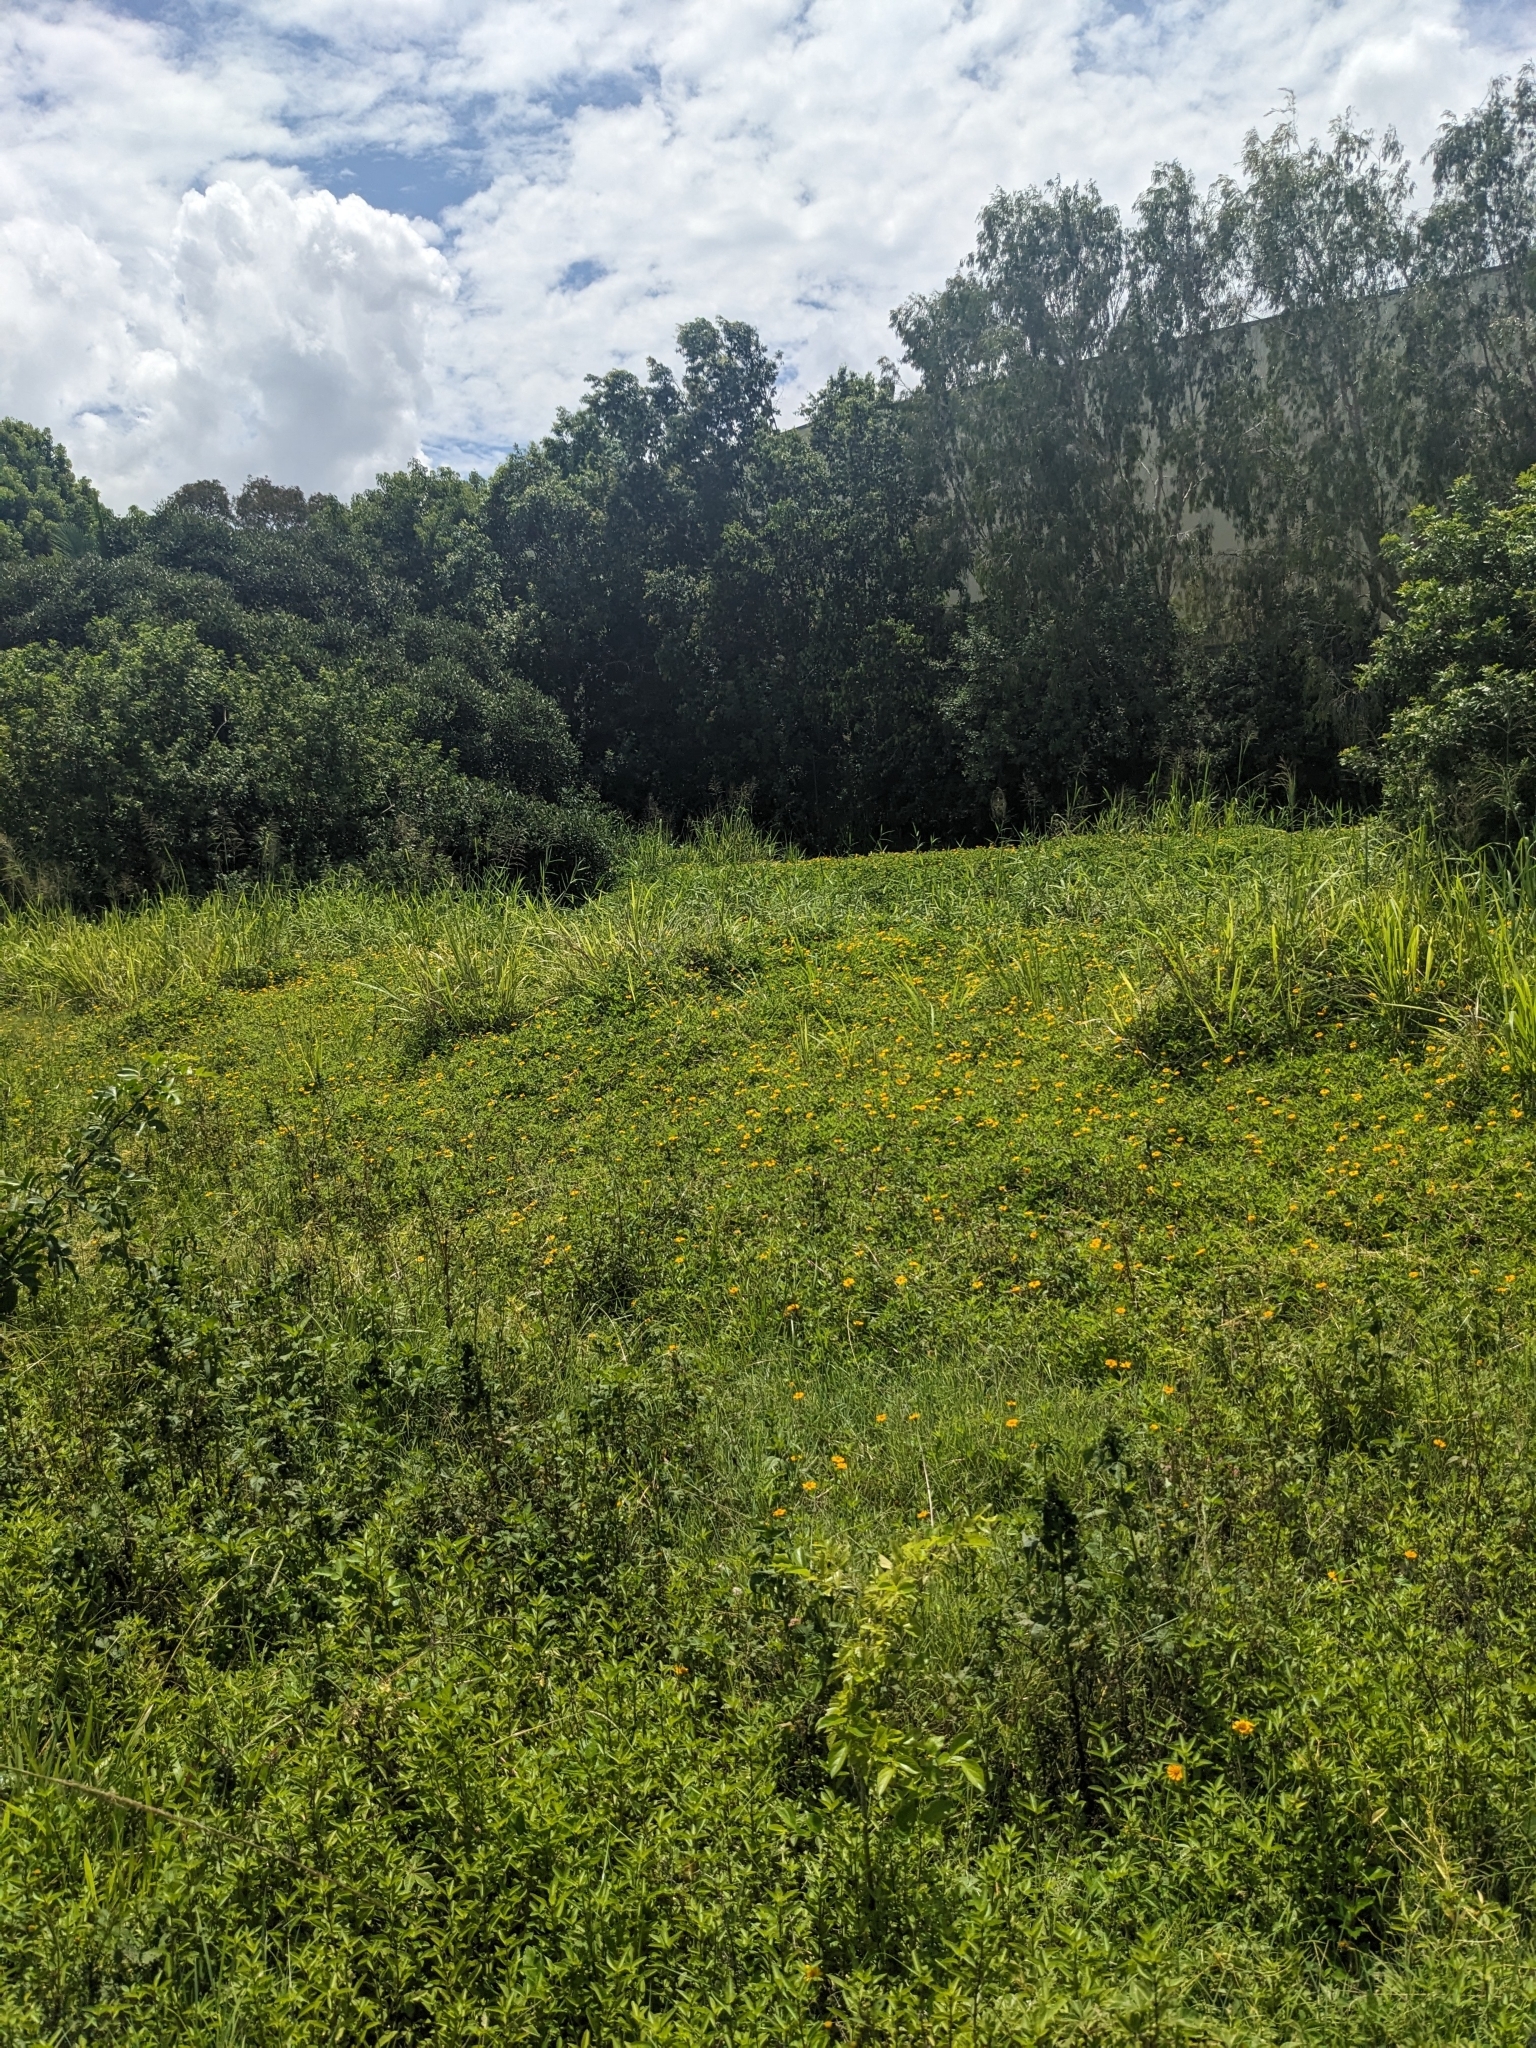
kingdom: Plantae
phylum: Tracheophyta
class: Magnoliopsida
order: Asterales
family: Asteraceae
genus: Sphagneticola
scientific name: Sphagneticola trilobata
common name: Bay biscayne creeping-oxeye
